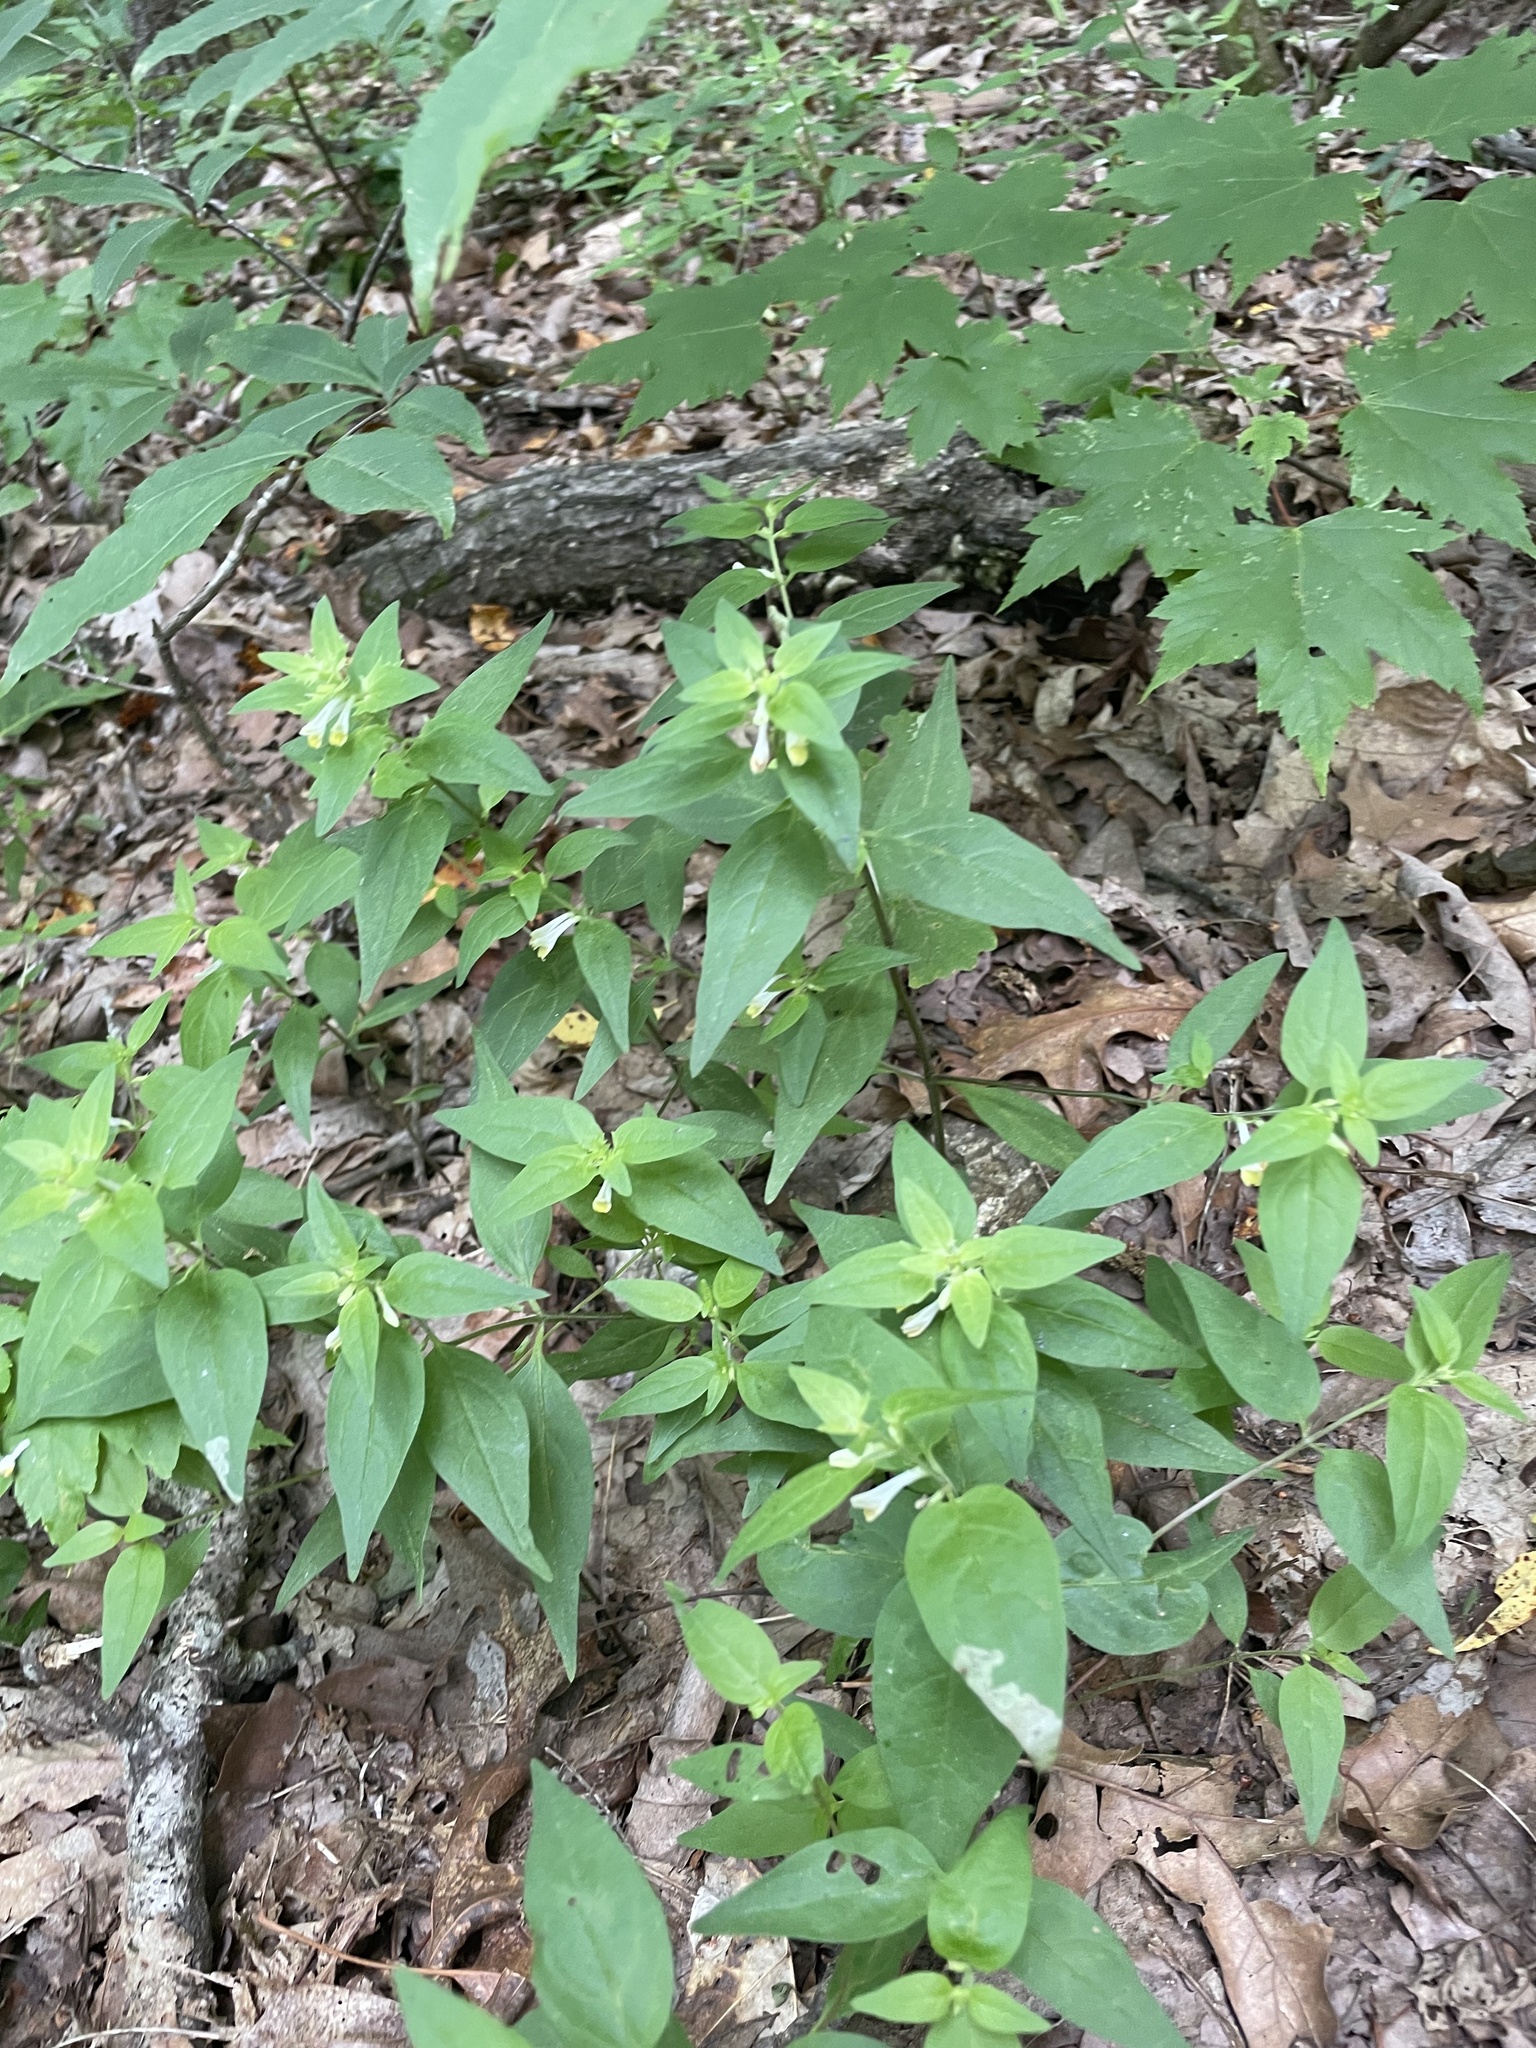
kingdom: Plantae
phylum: Tracheophyta
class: Magnoliopsida
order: Lamiales
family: Orobanchaceae
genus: Melampyrum
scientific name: Melampyrum lineare
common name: American cow-wheat
